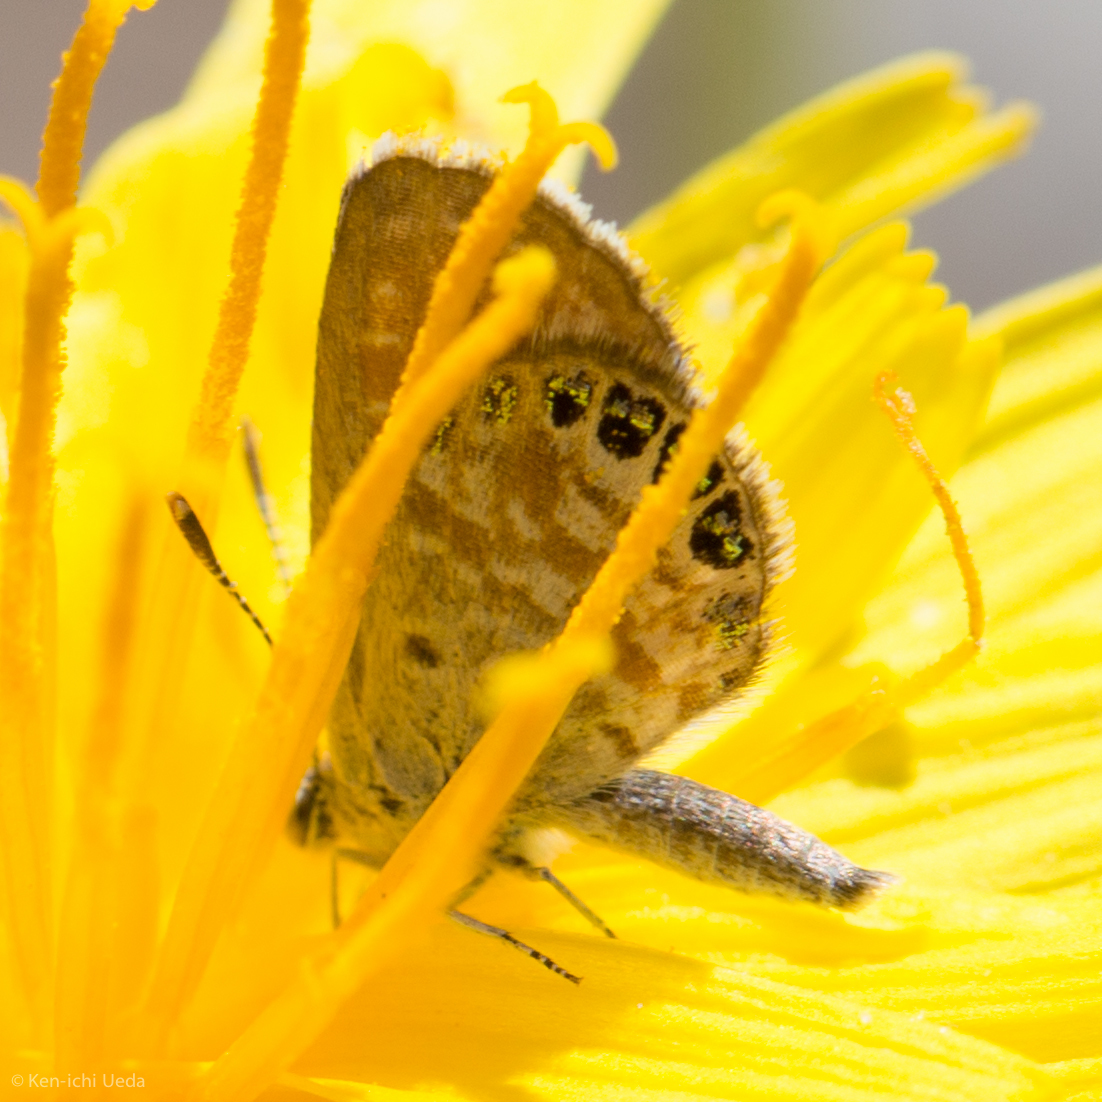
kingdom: Animalia
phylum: Arthropoda
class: Insecta
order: Lepidoptera
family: Lycaenidae
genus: Brephidium
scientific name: Brephidium exilis
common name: Pygmy blue
